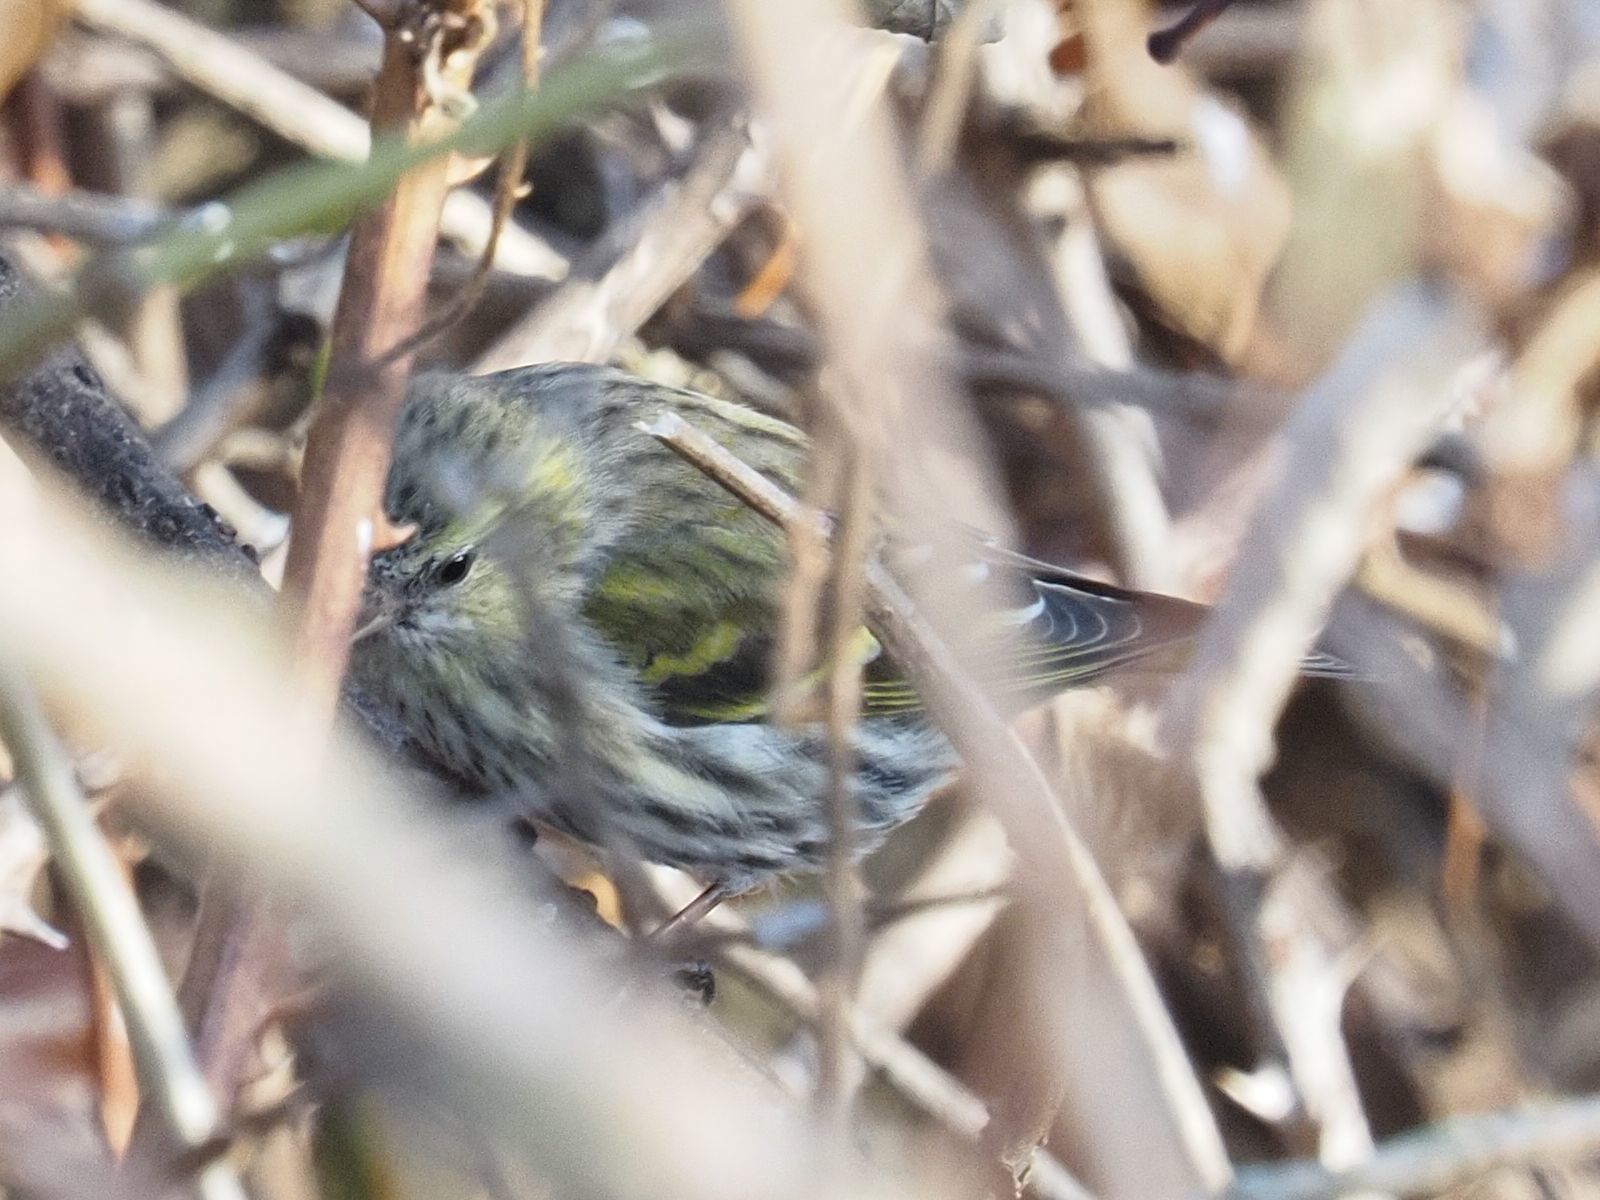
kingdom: Animalia
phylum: Chordata
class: Aves
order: Passeriformes
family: Fringillidae
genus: Spinus
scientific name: Spinus spinus
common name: Eurasian siskin
